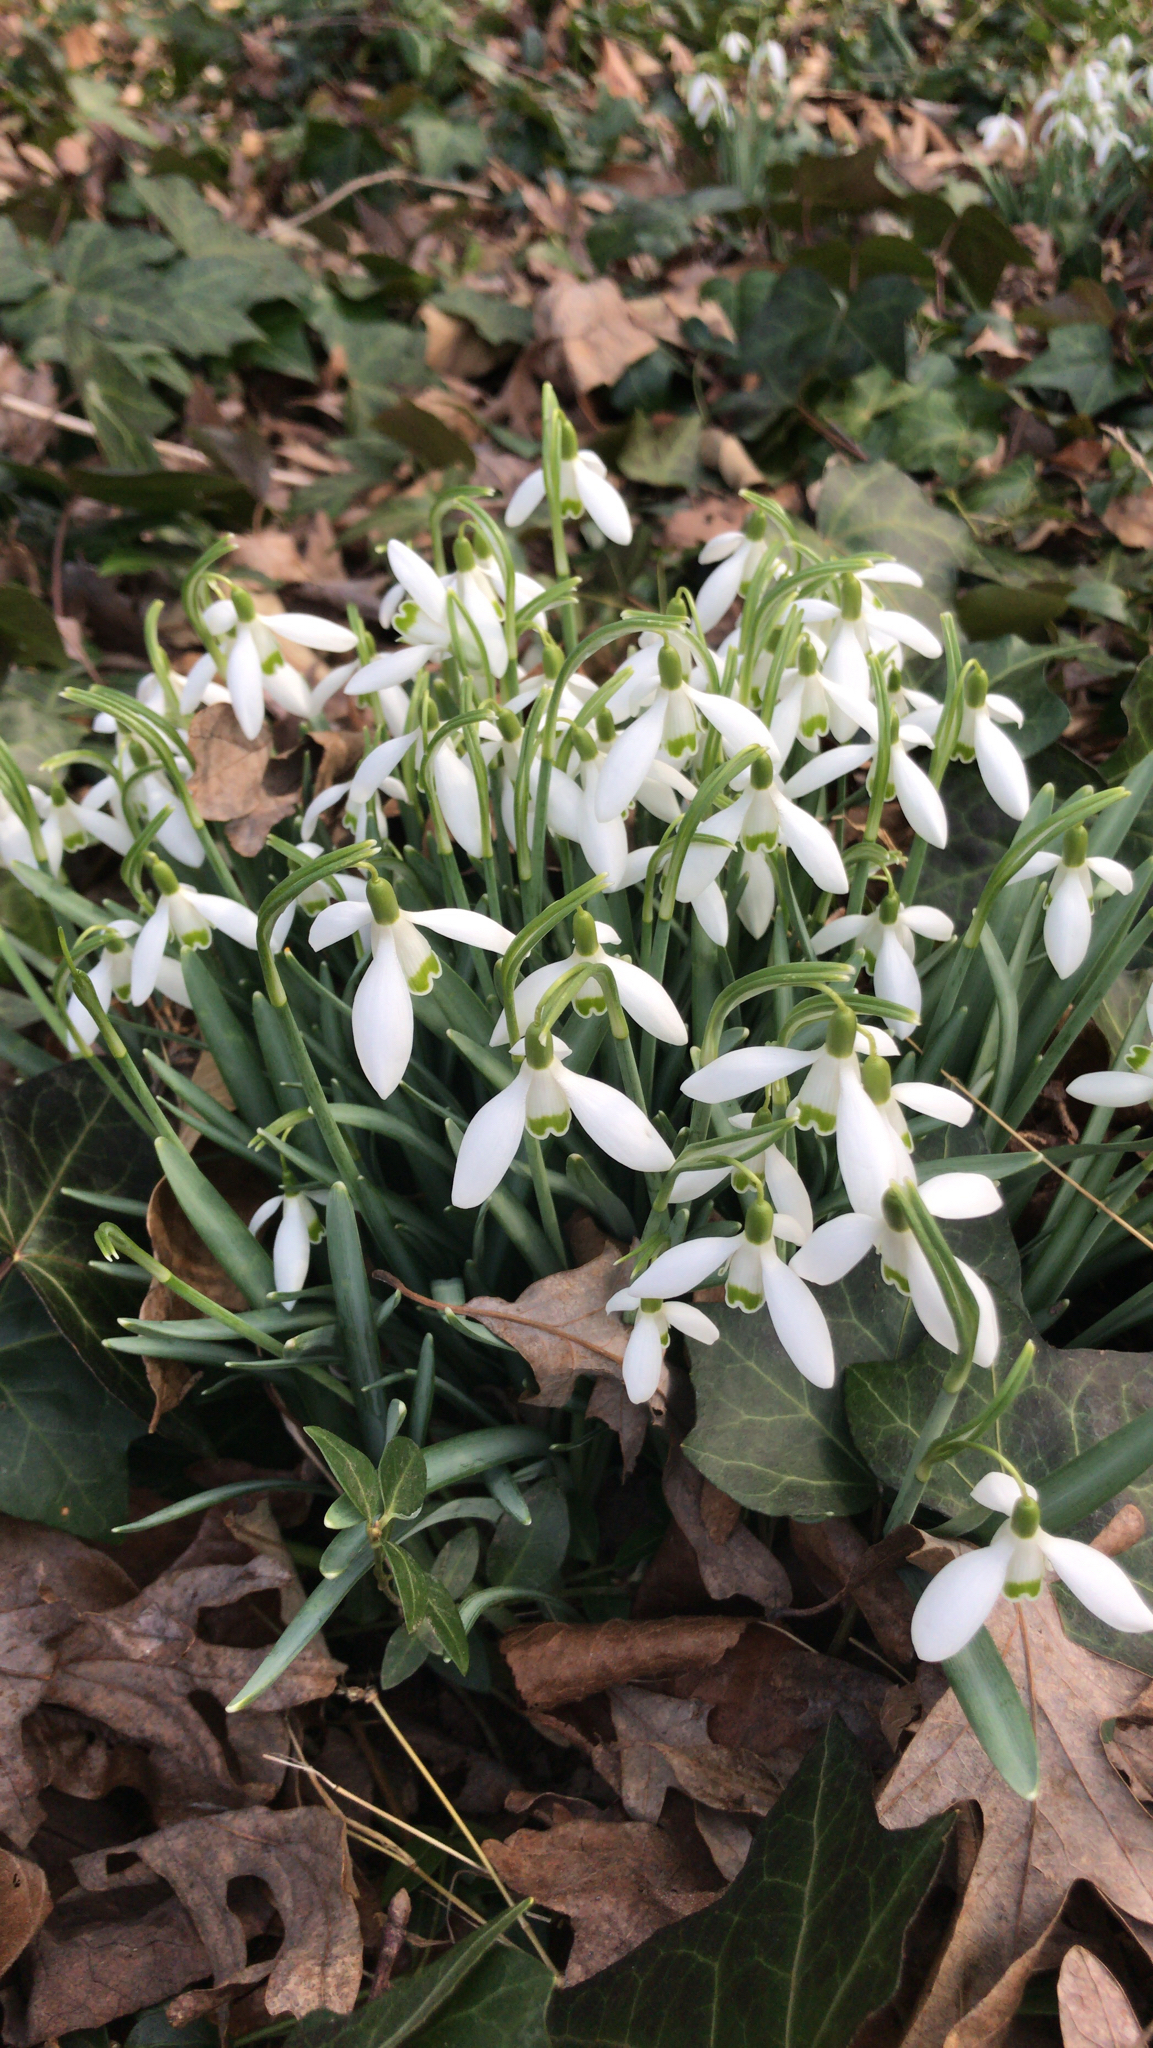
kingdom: Plantae
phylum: Tracheophyta
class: Liliopsida
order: Asparagales
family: Amaryllidaceae
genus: Galanthus
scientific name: Galanthus nivalis
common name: Snowdrop
